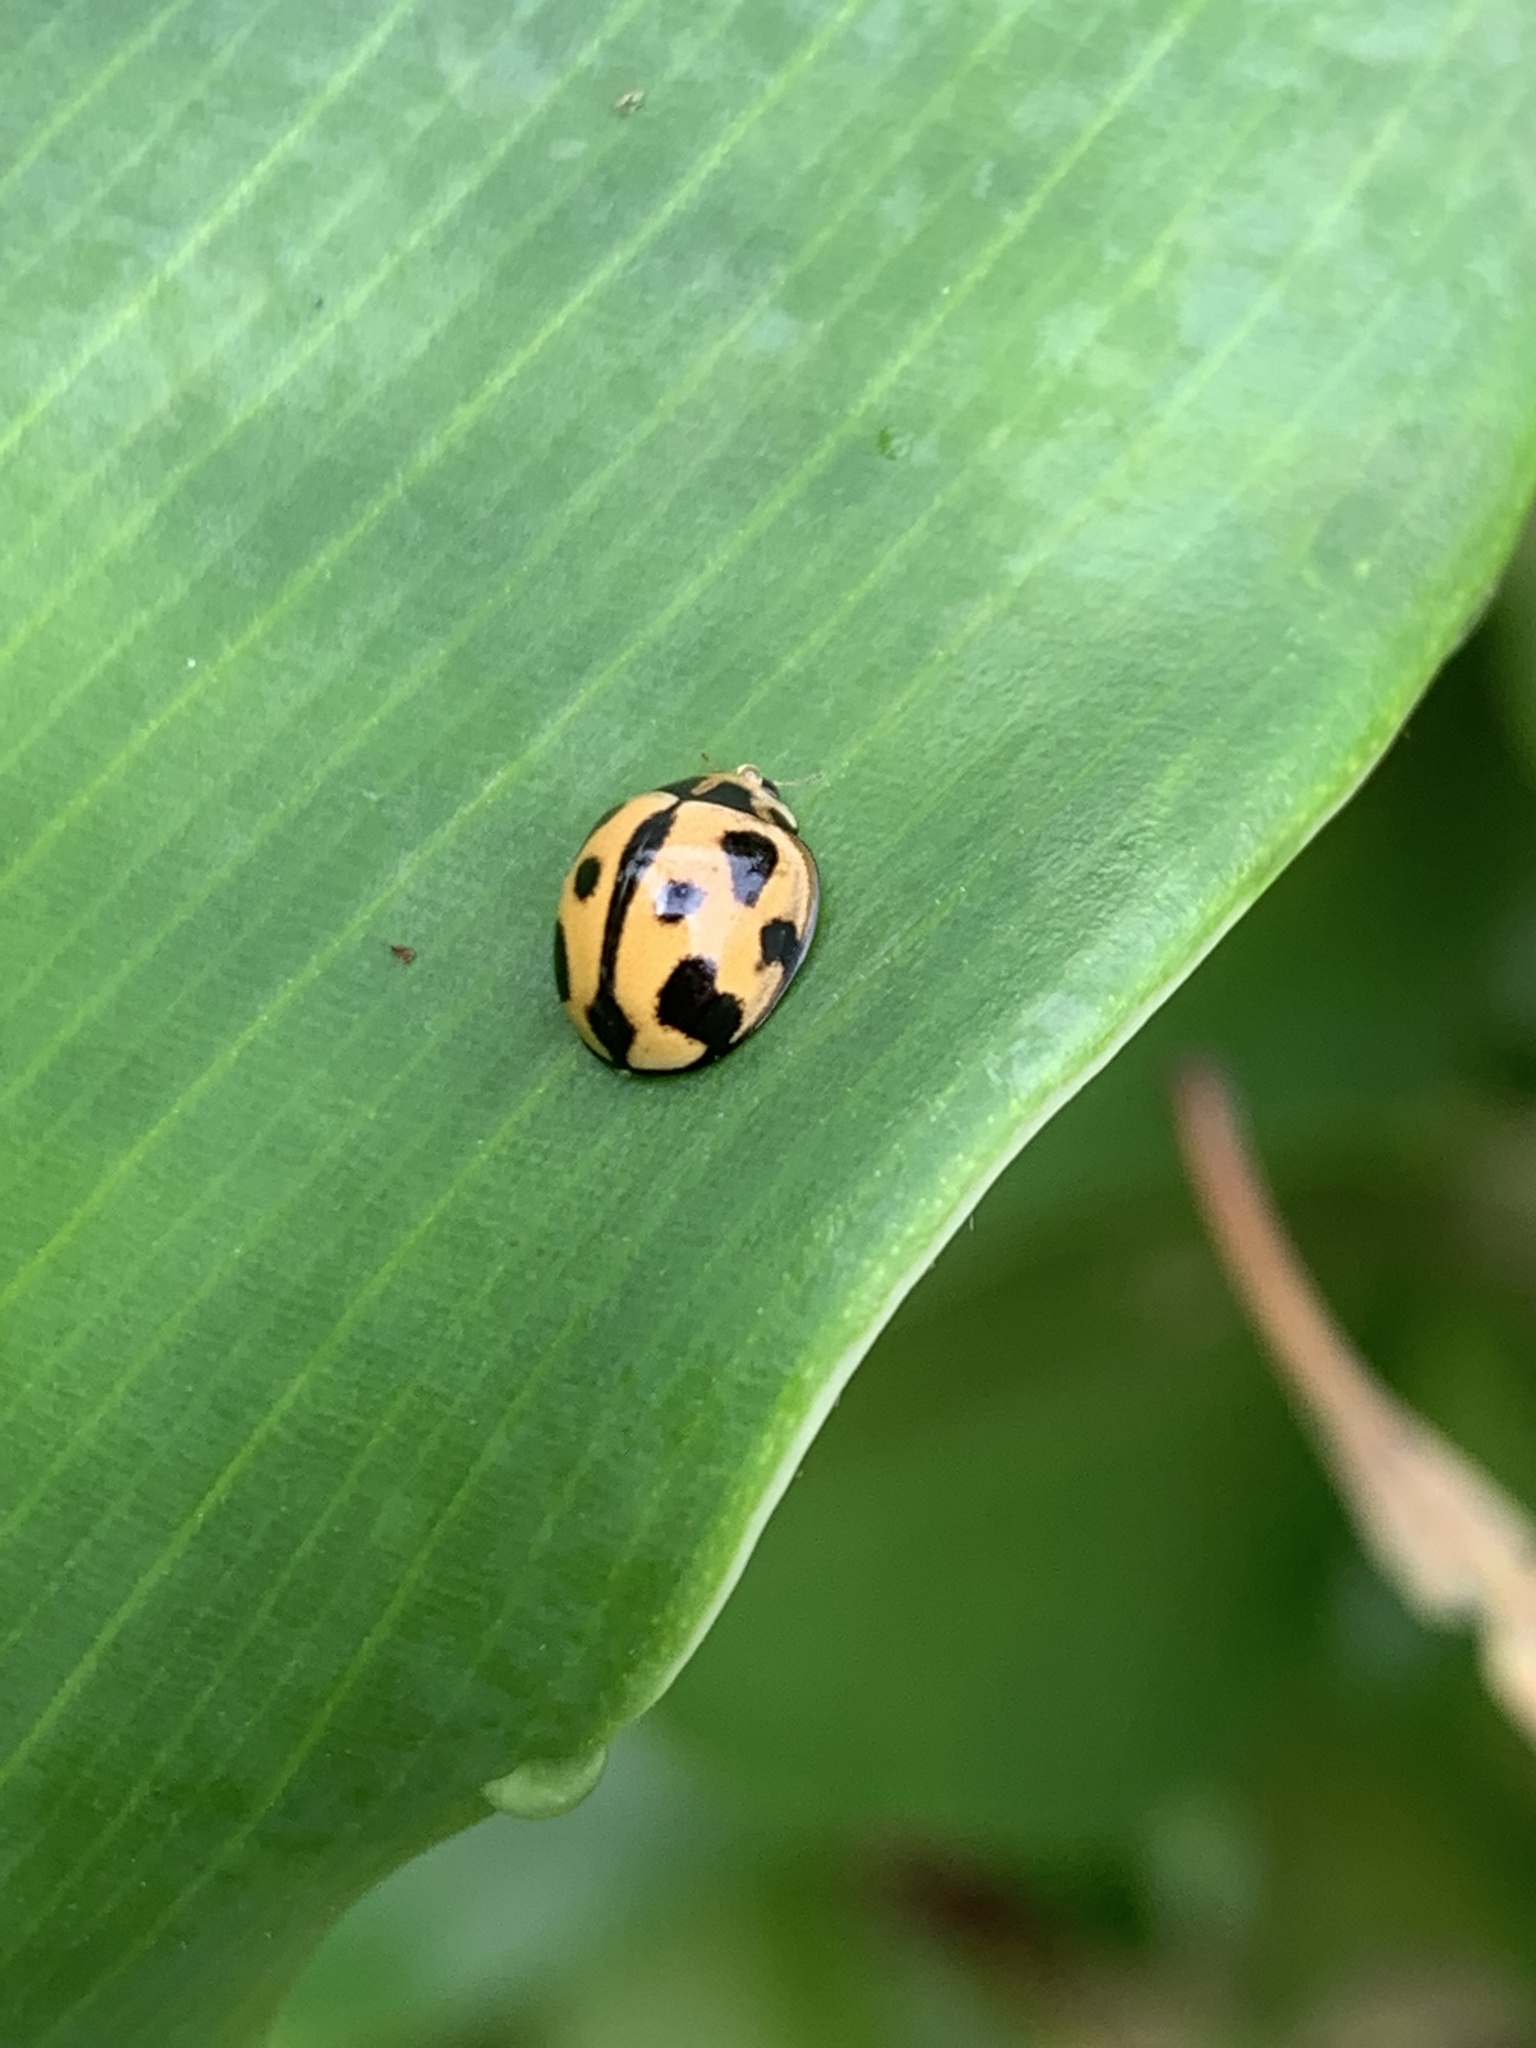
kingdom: Animalia
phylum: Arthropoda
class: Insecta
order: Coleoptera
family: Coccinellidae
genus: Coelophora
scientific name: Coelophora inaequalis
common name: Common australian lady beetle
